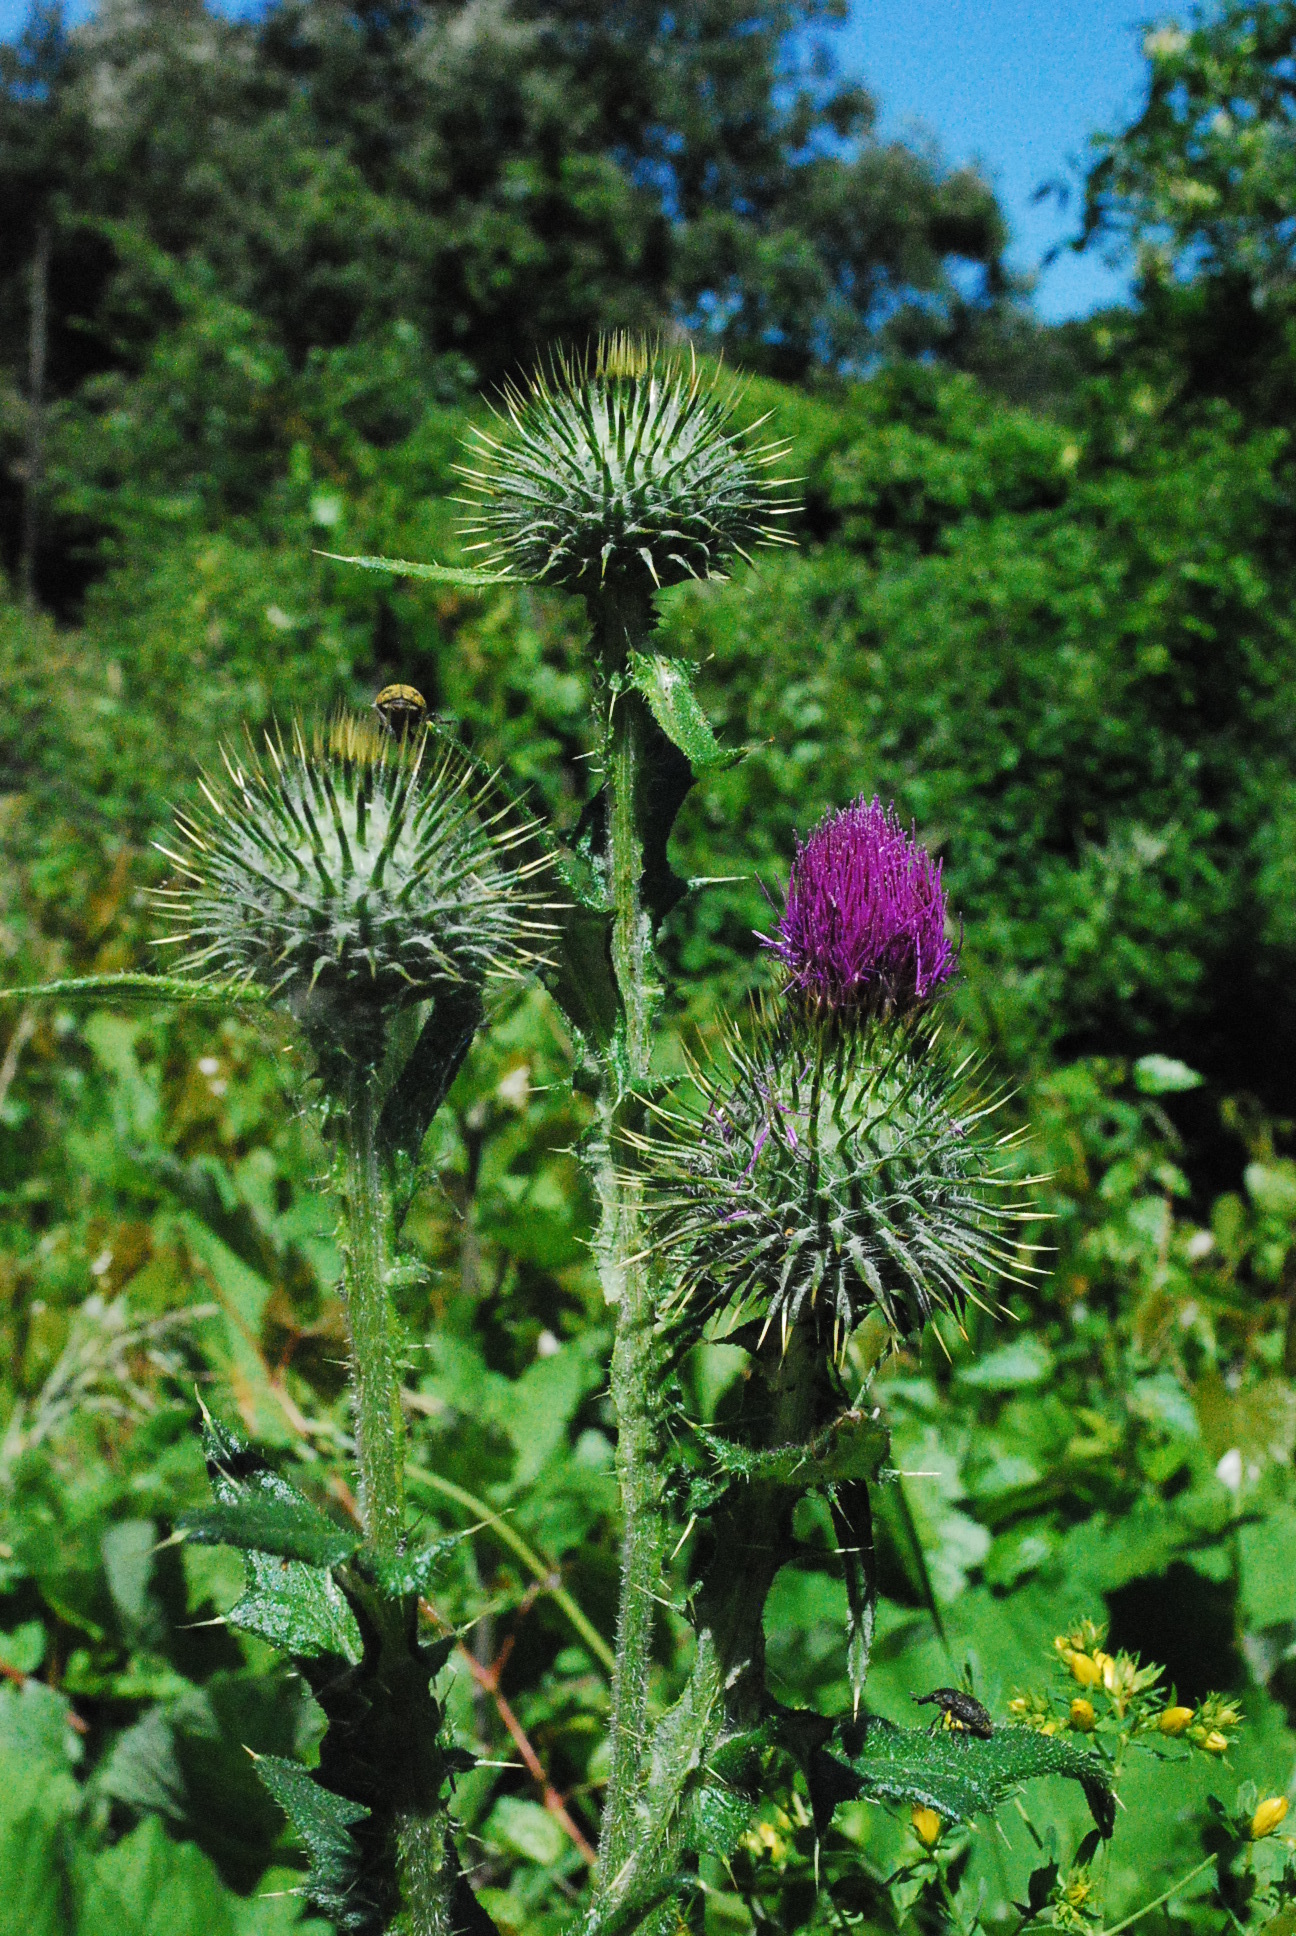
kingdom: Plantae
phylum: Tracheophyta
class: Magnoliopsida
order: Asterales
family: Asteraceae
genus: Cirsium
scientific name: Cirsium vulgare
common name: Bull thistle
